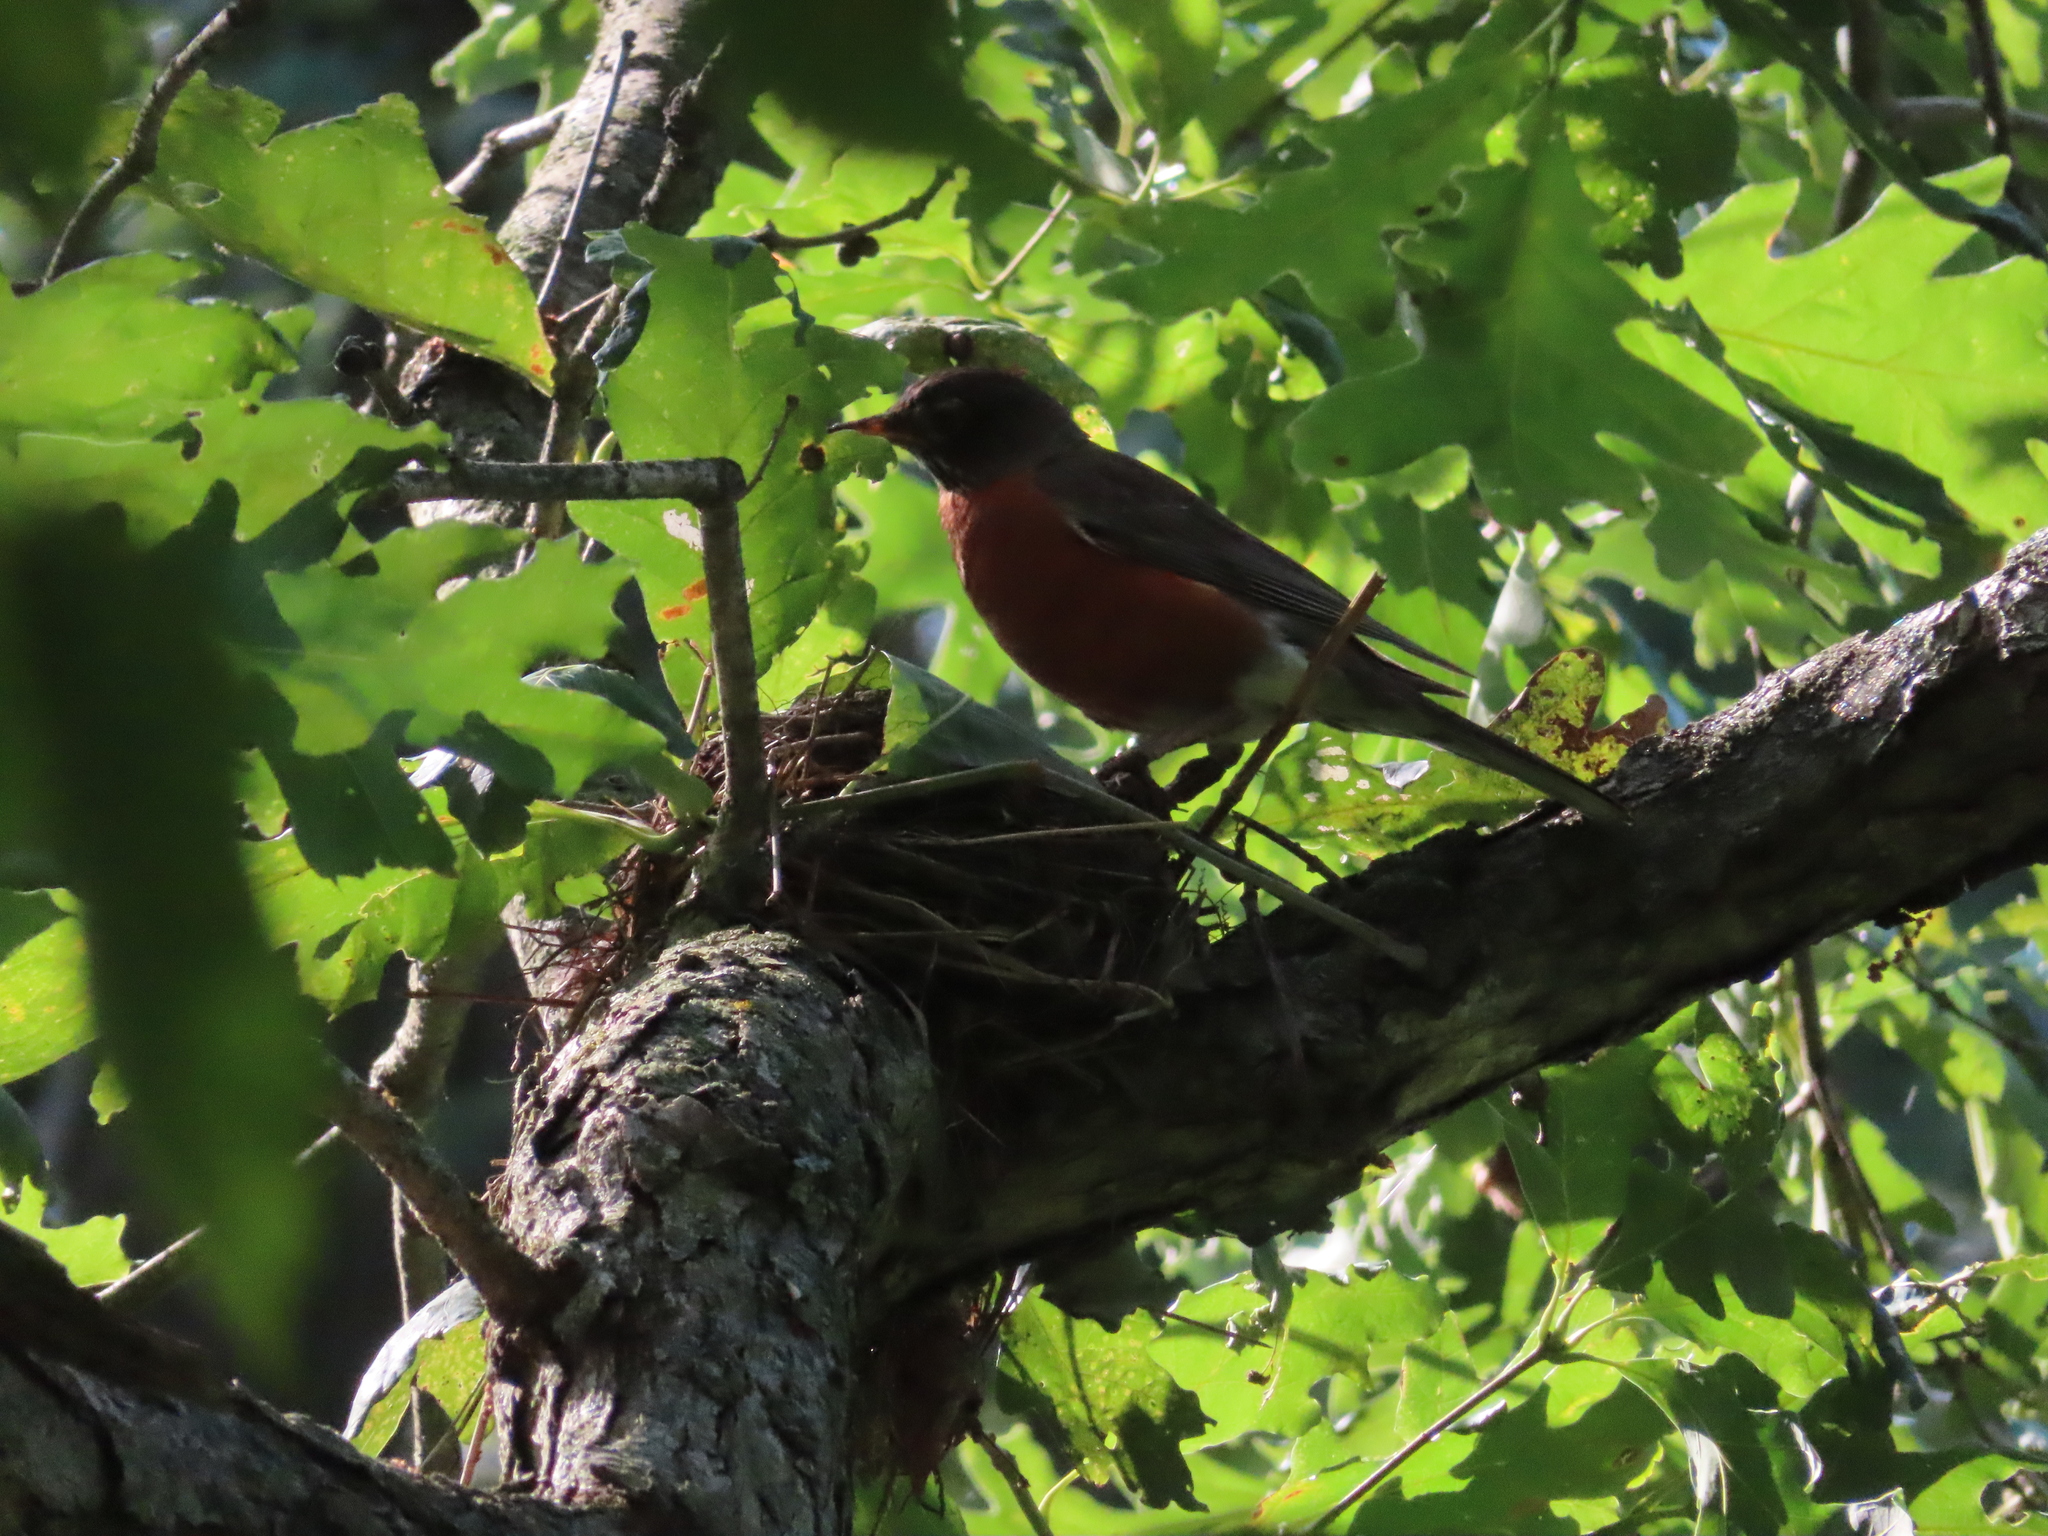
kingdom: Animalia
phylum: Chordata
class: Aves
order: Passeriformes
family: Turdidae
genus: Turdus
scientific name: Turdus migratorius
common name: American robin
